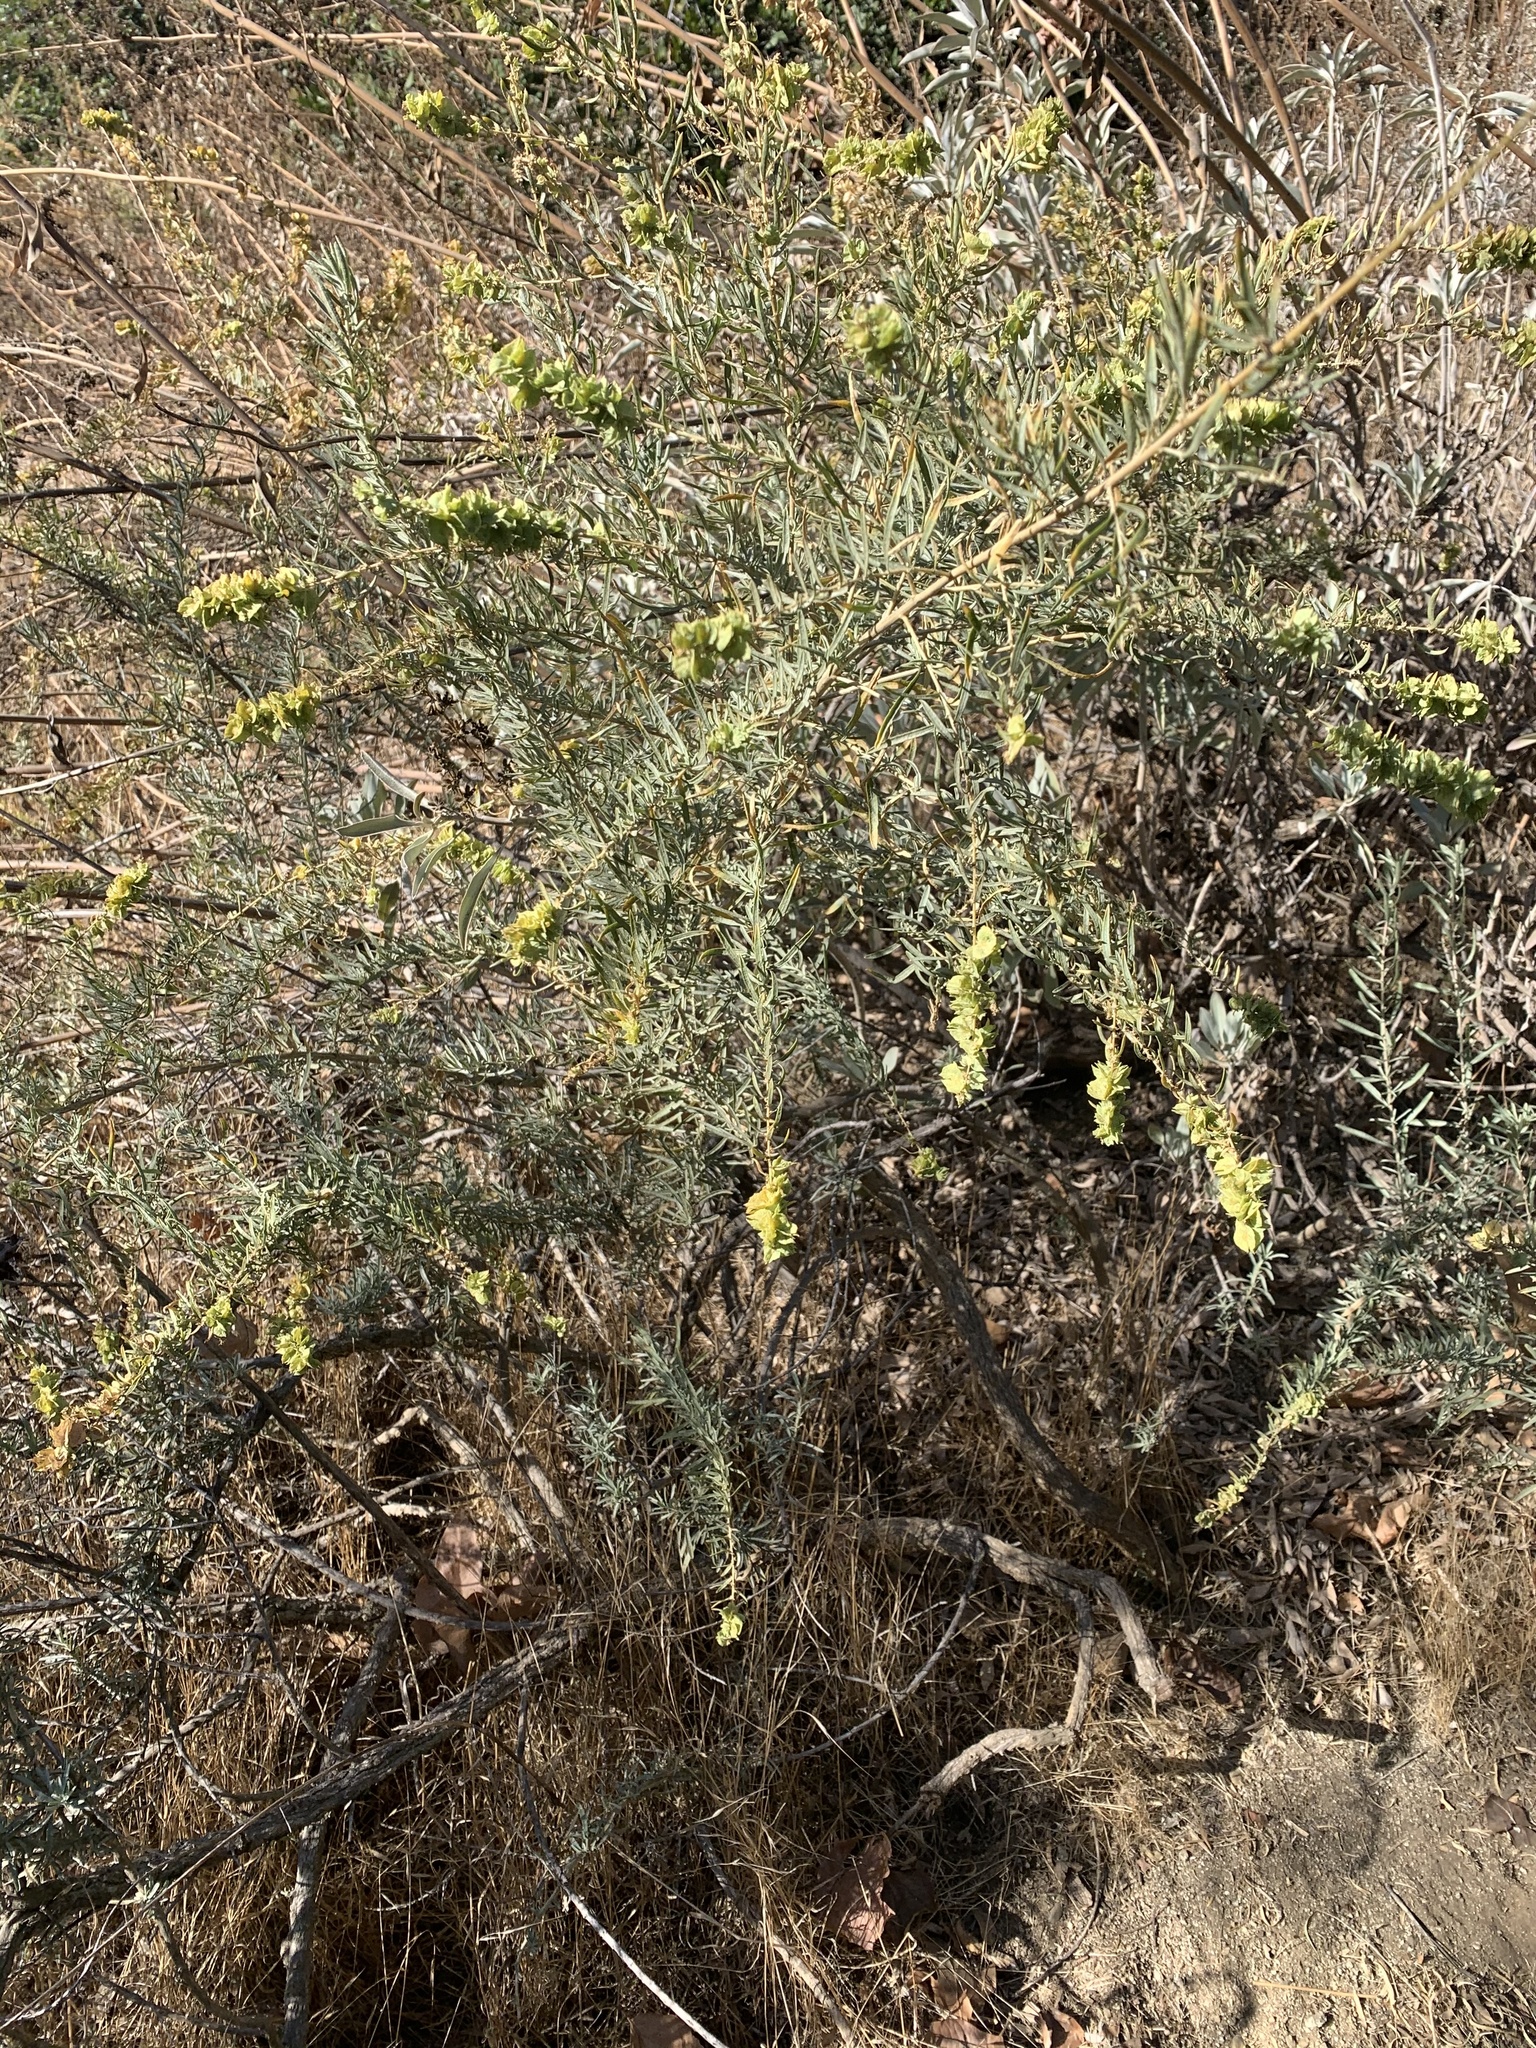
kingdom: Plantae
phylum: Tracheophyta
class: Magnoliopsida
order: Caryophyllales
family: Amaranthaceae
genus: Atriplex
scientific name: Atriplex canescens
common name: Four-wing saltbush
